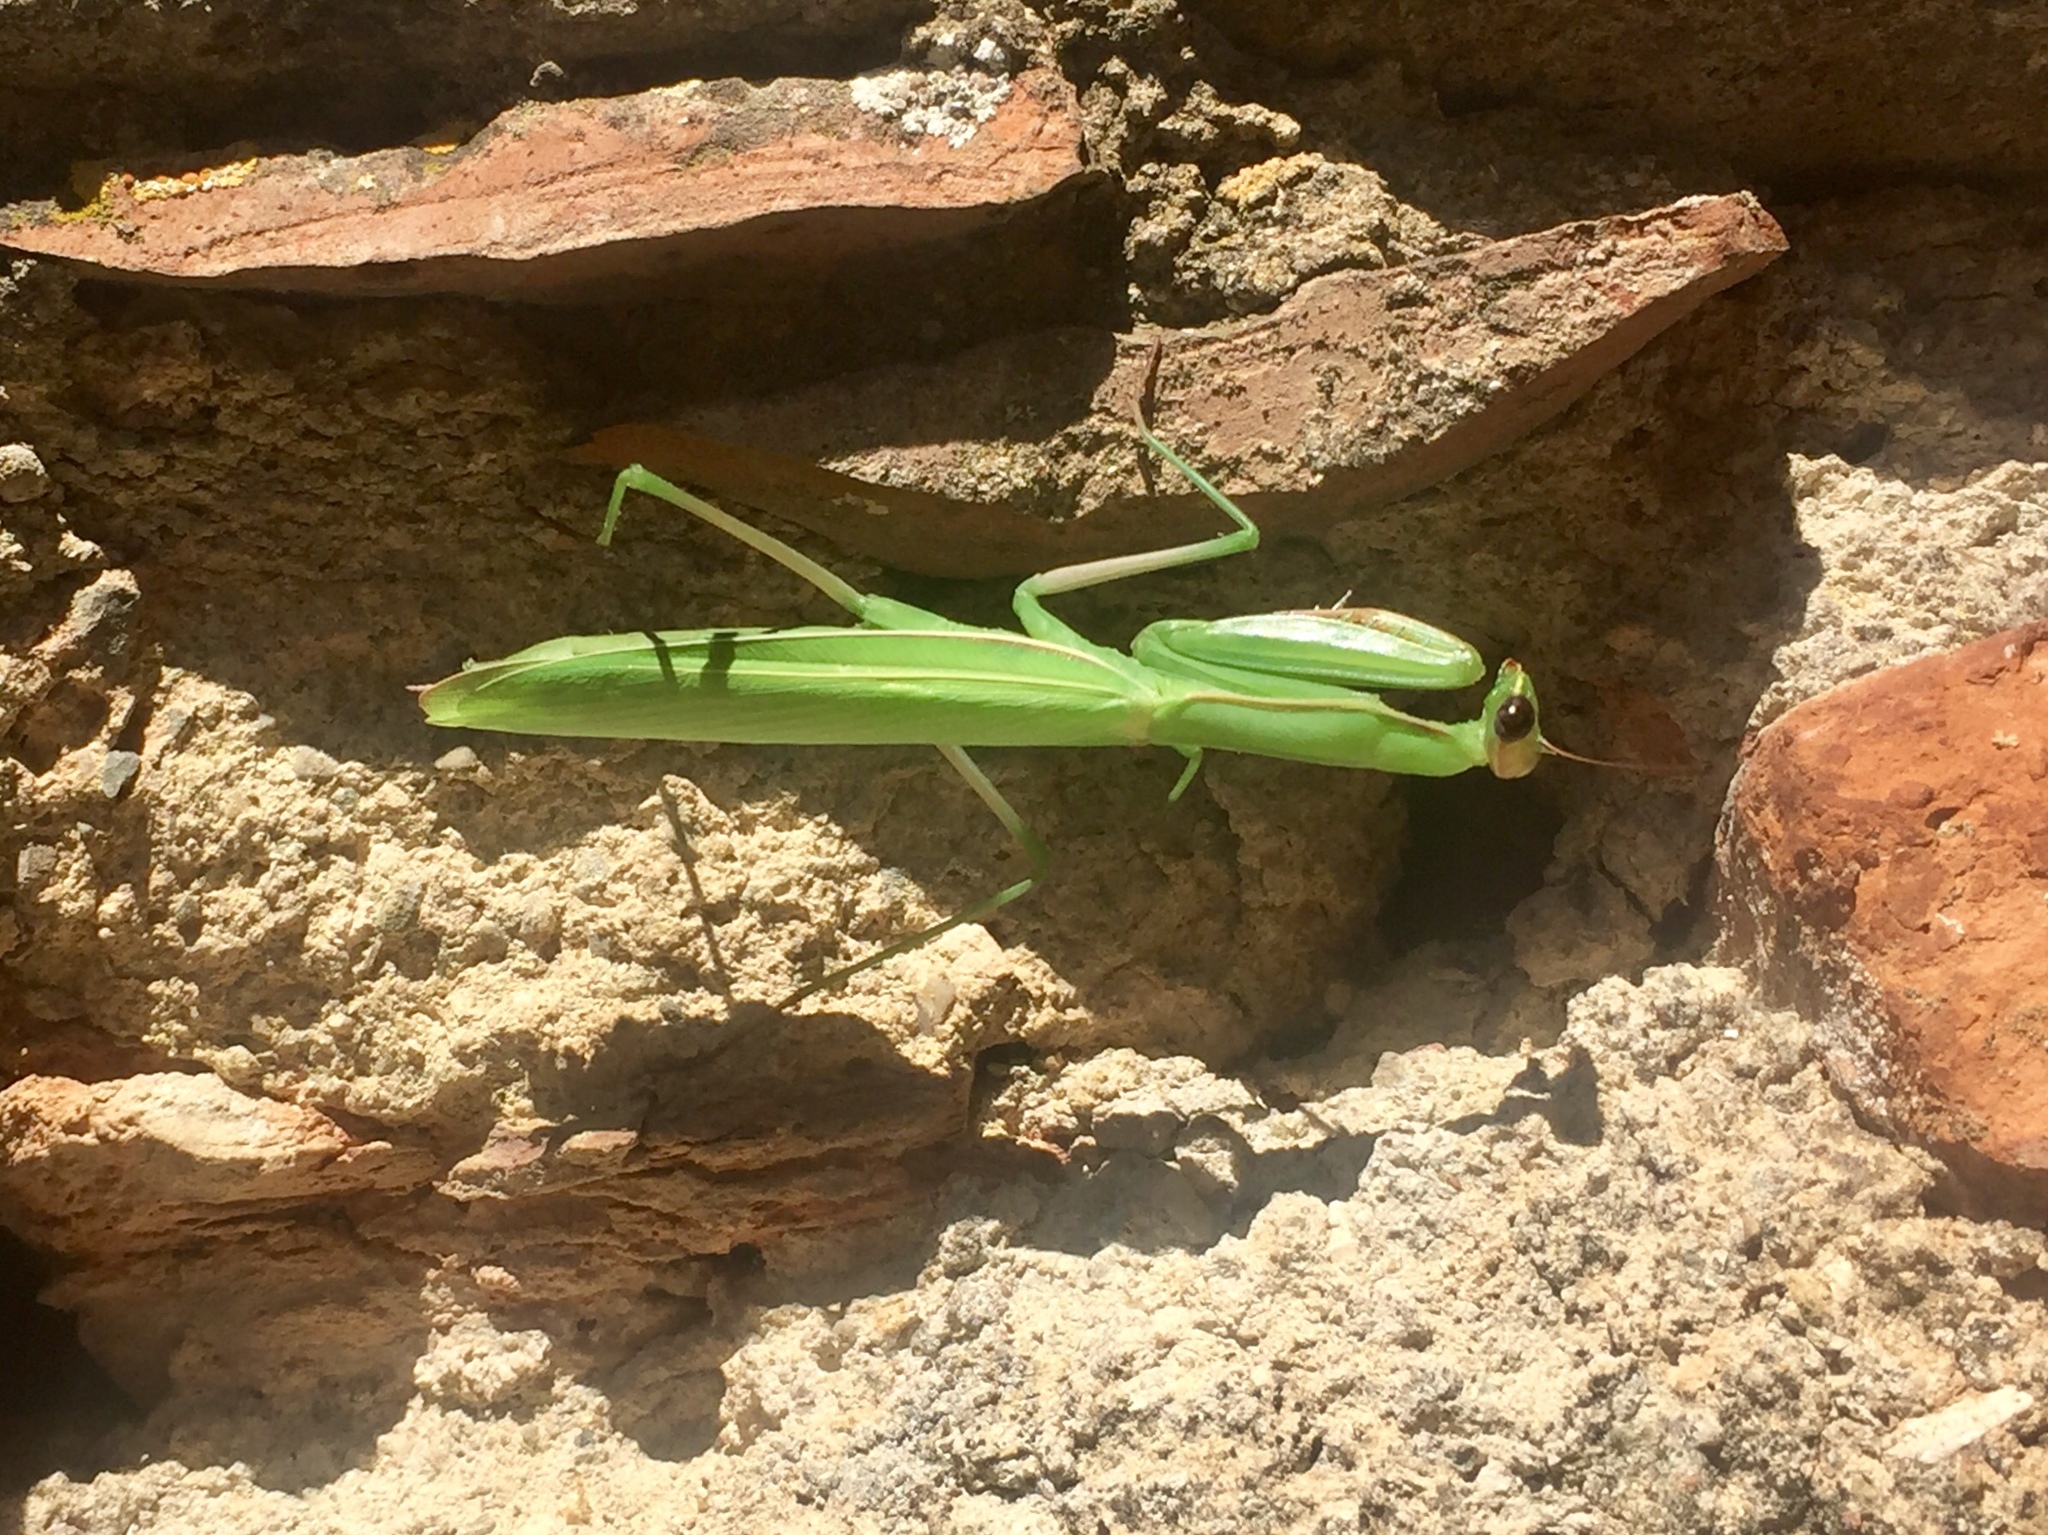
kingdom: Animalia
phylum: Arthropoda
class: Insecta
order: Mantodea
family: Mantidae
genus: Mantis
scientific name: Mantis religiosa
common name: Praying mantis
